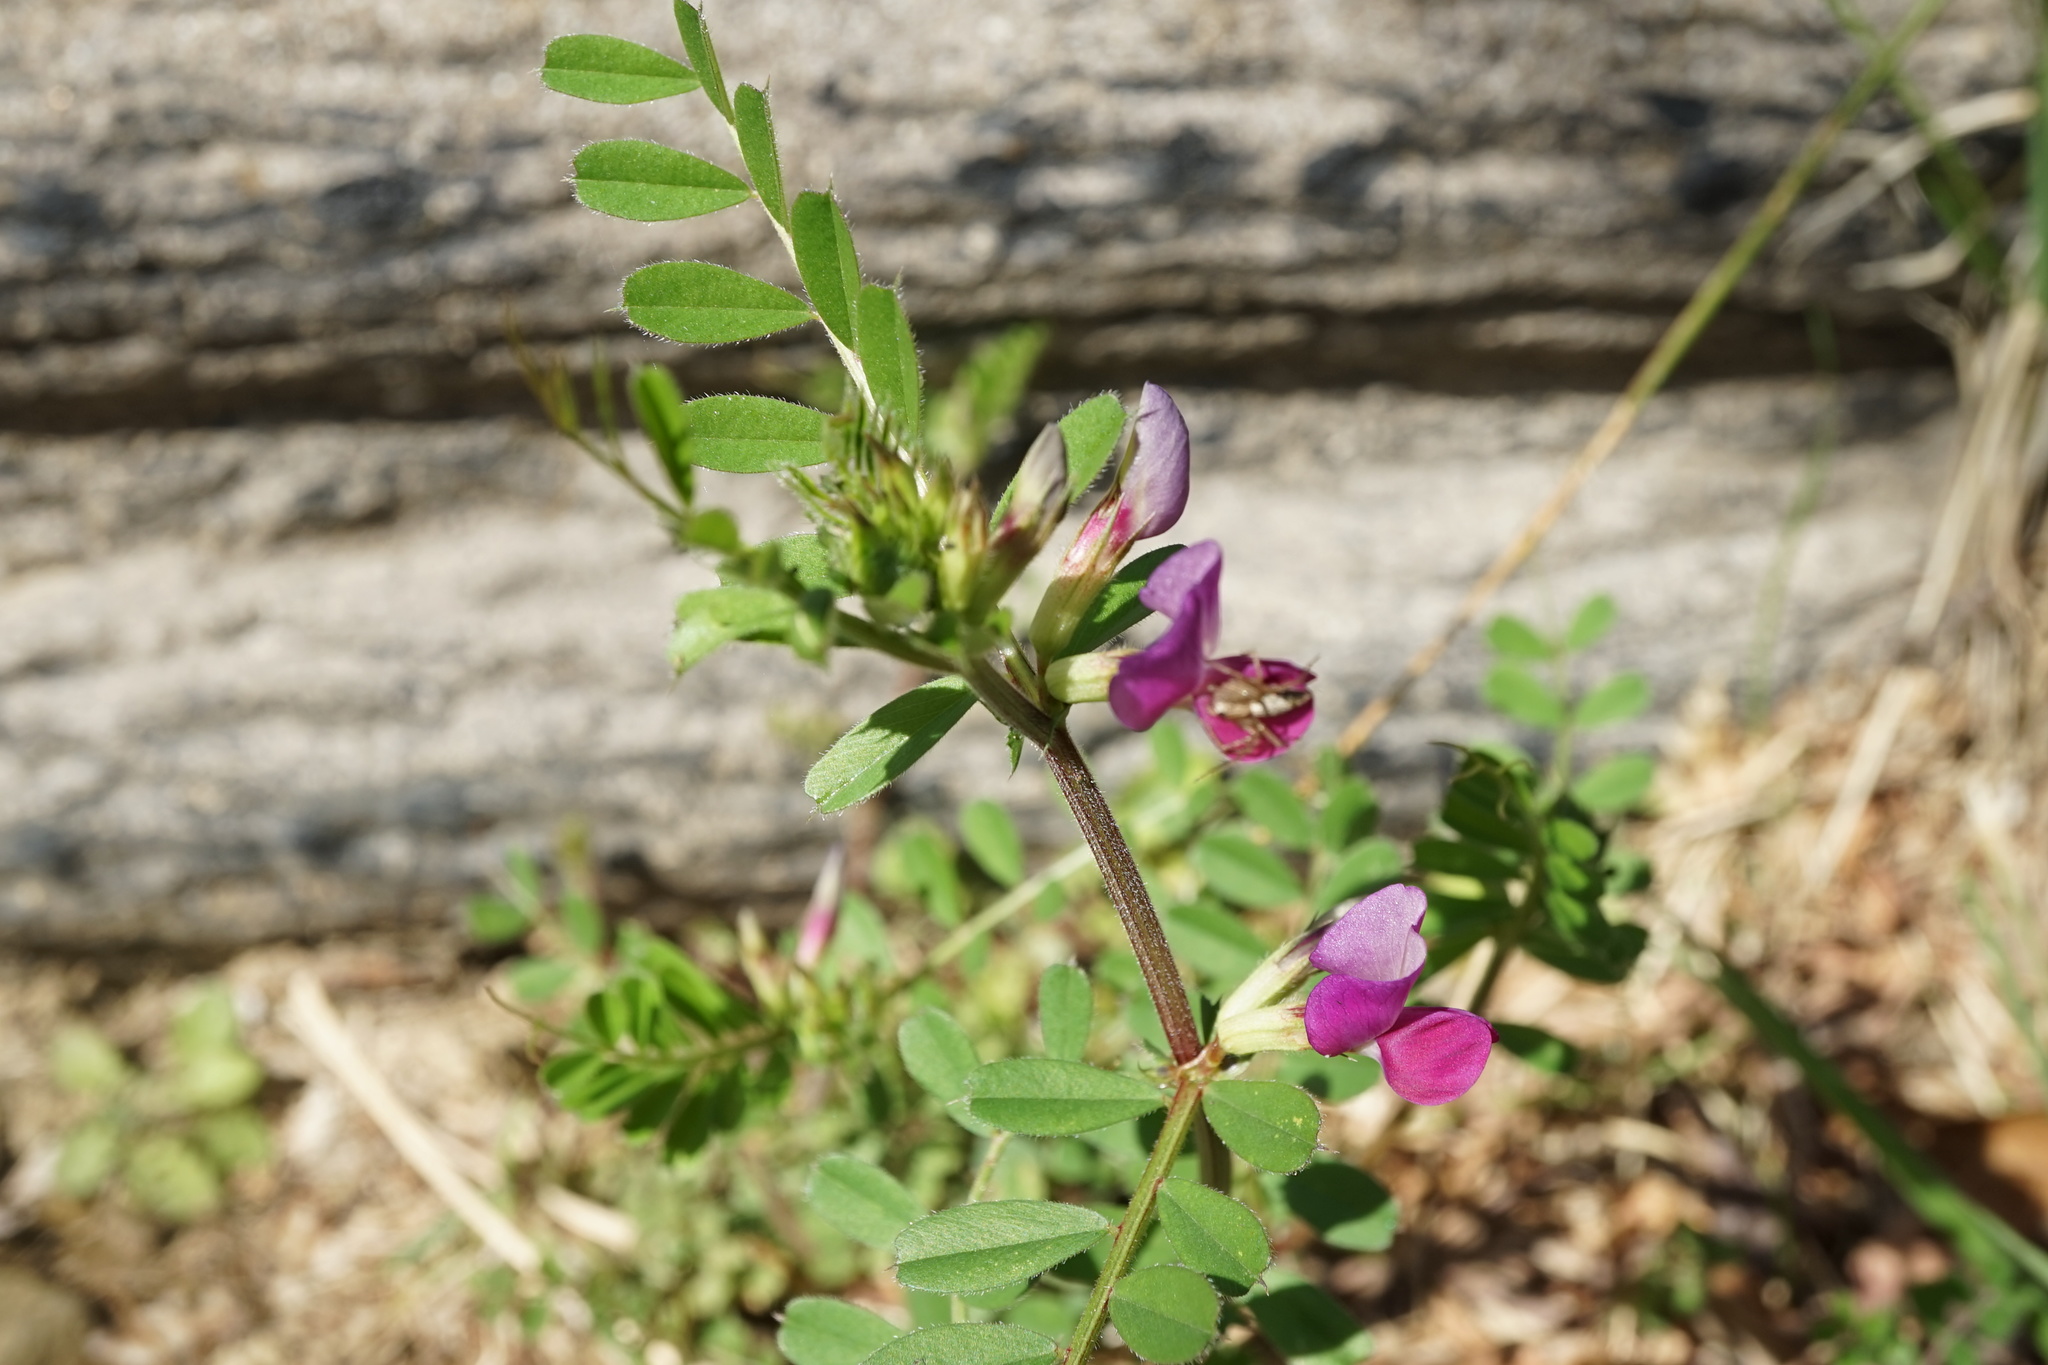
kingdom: Plantae
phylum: Tracheophyta
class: Magnoliopsida
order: Fabales
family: Fabaceae
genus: Vicia
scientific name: Vicia sativa
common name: Garden vetch
